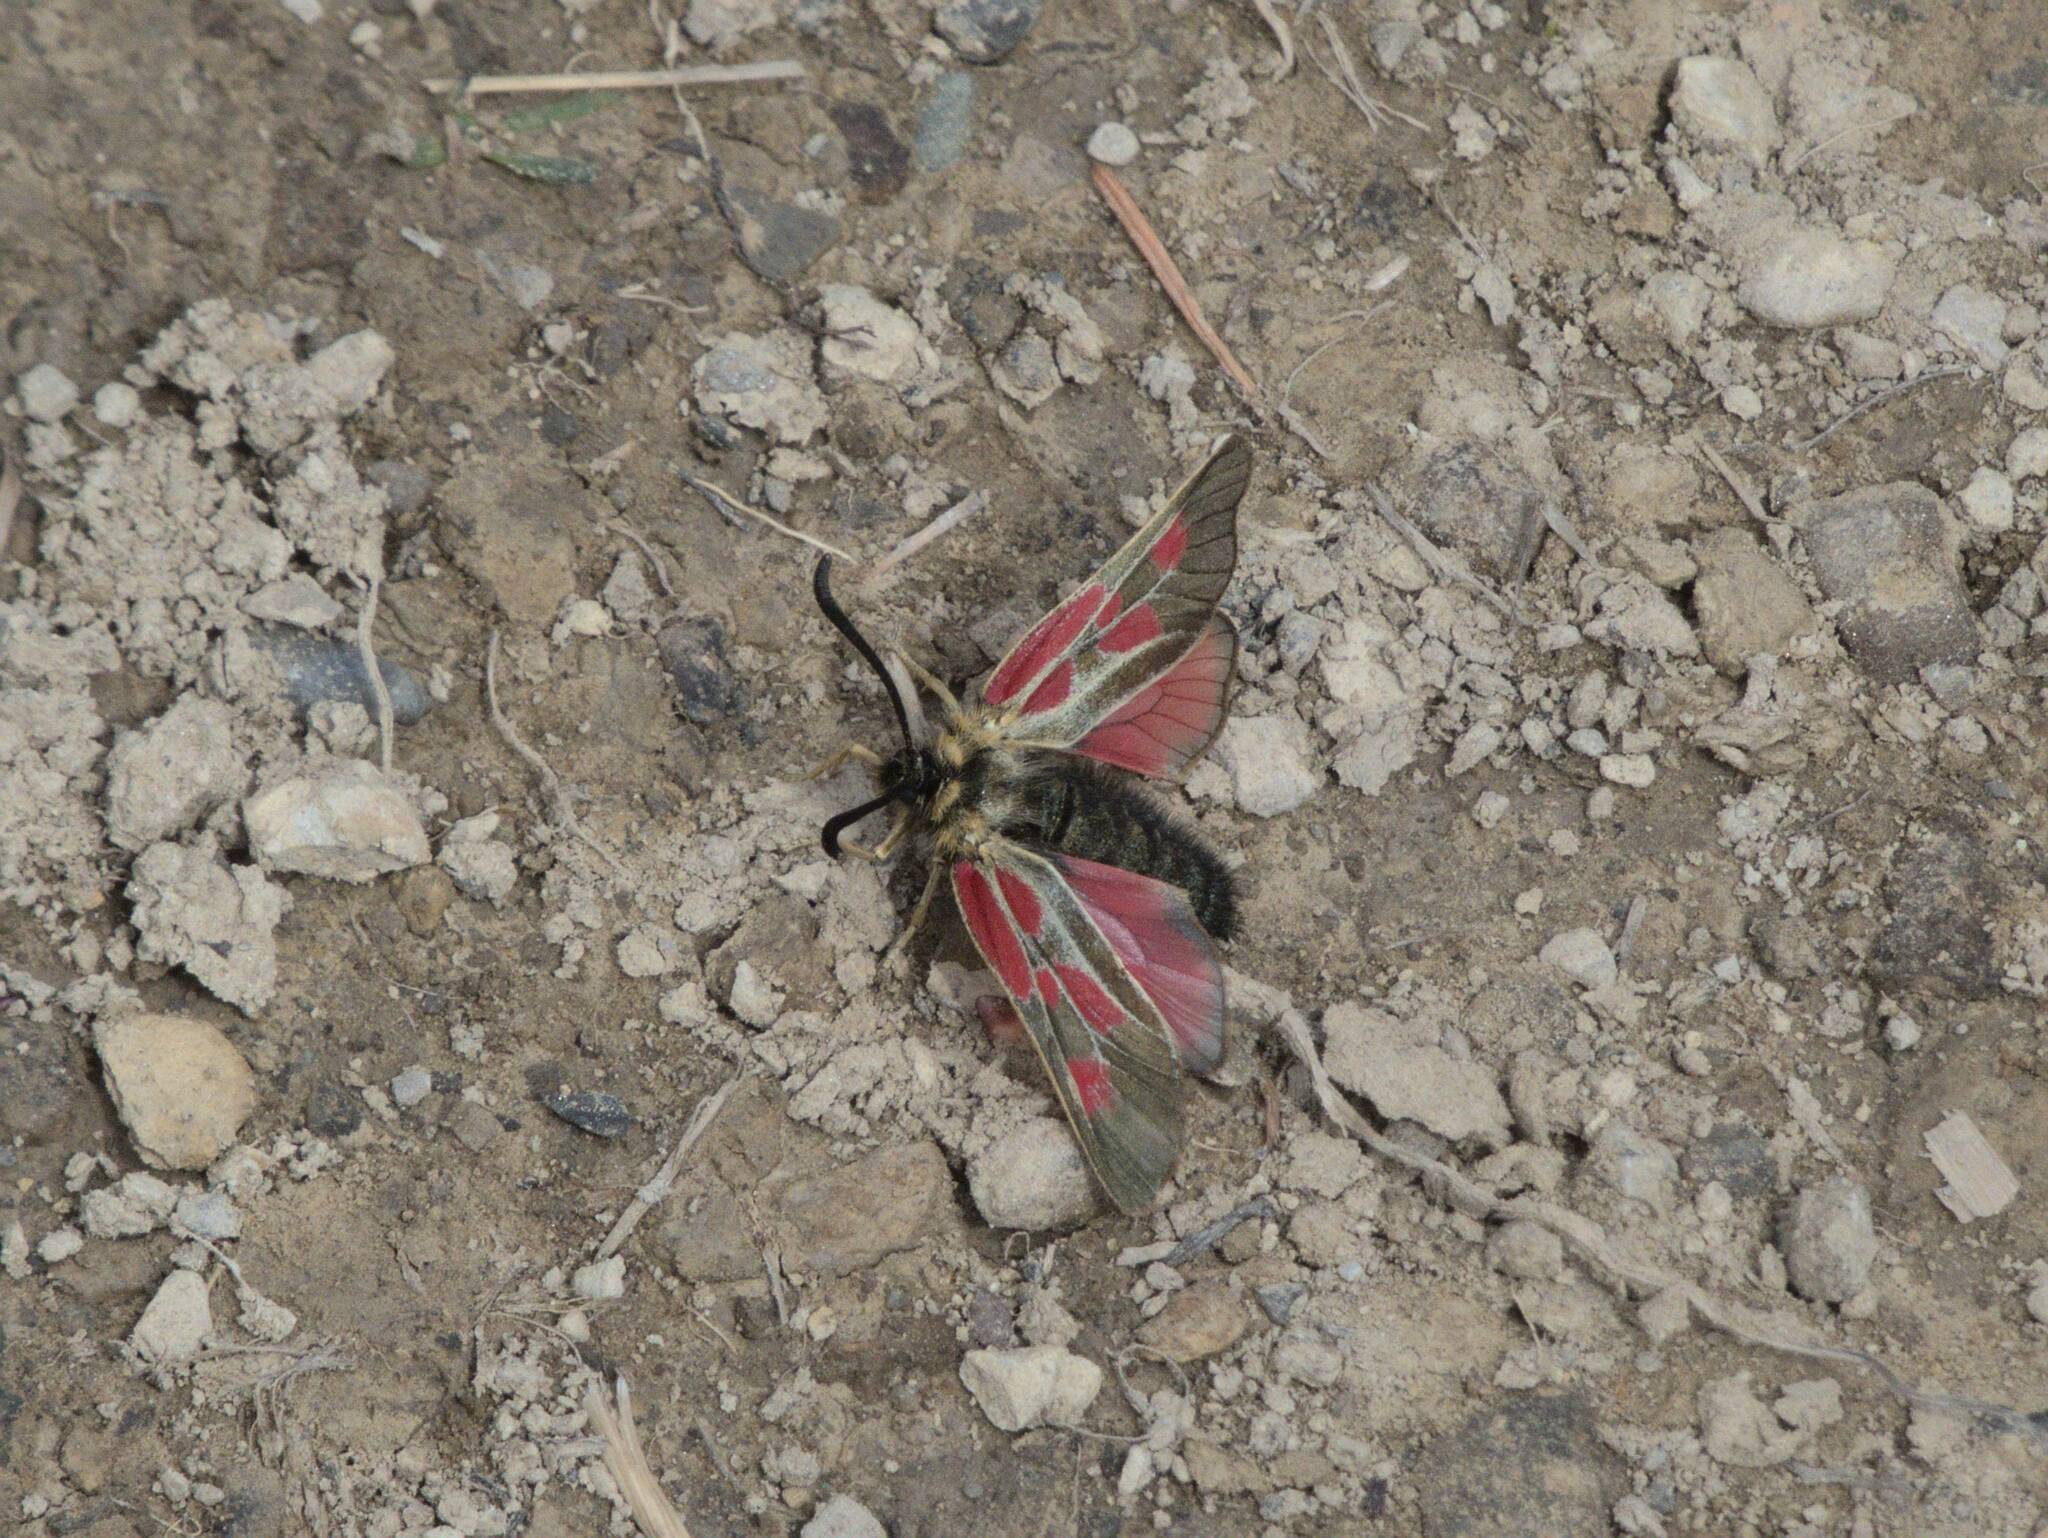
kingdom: Animalia
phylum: Arthropoda
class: Insecta
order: Lepidoptera
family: Zygaenidae
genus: Zygaena
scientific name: Zygaena exulans
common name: Scotch burnet
